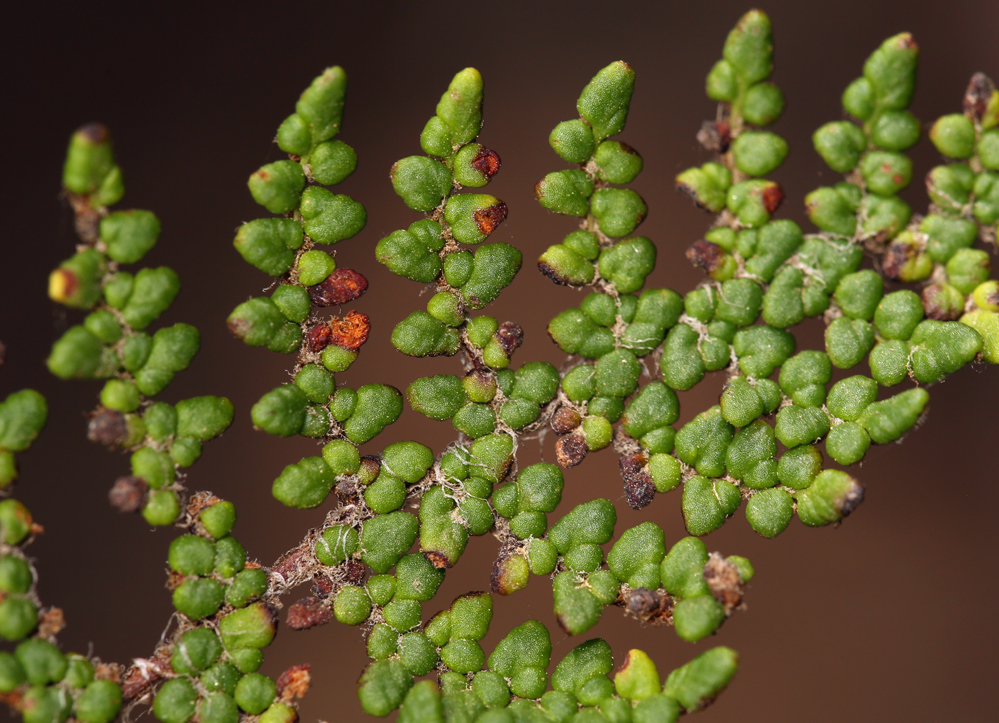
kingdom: Plantae
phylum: Tracheophyta
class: Polypodiopsida
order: Polypodiales
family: Pteridaceae
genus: Myriopteris
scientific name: Myriopteris clevelandii
